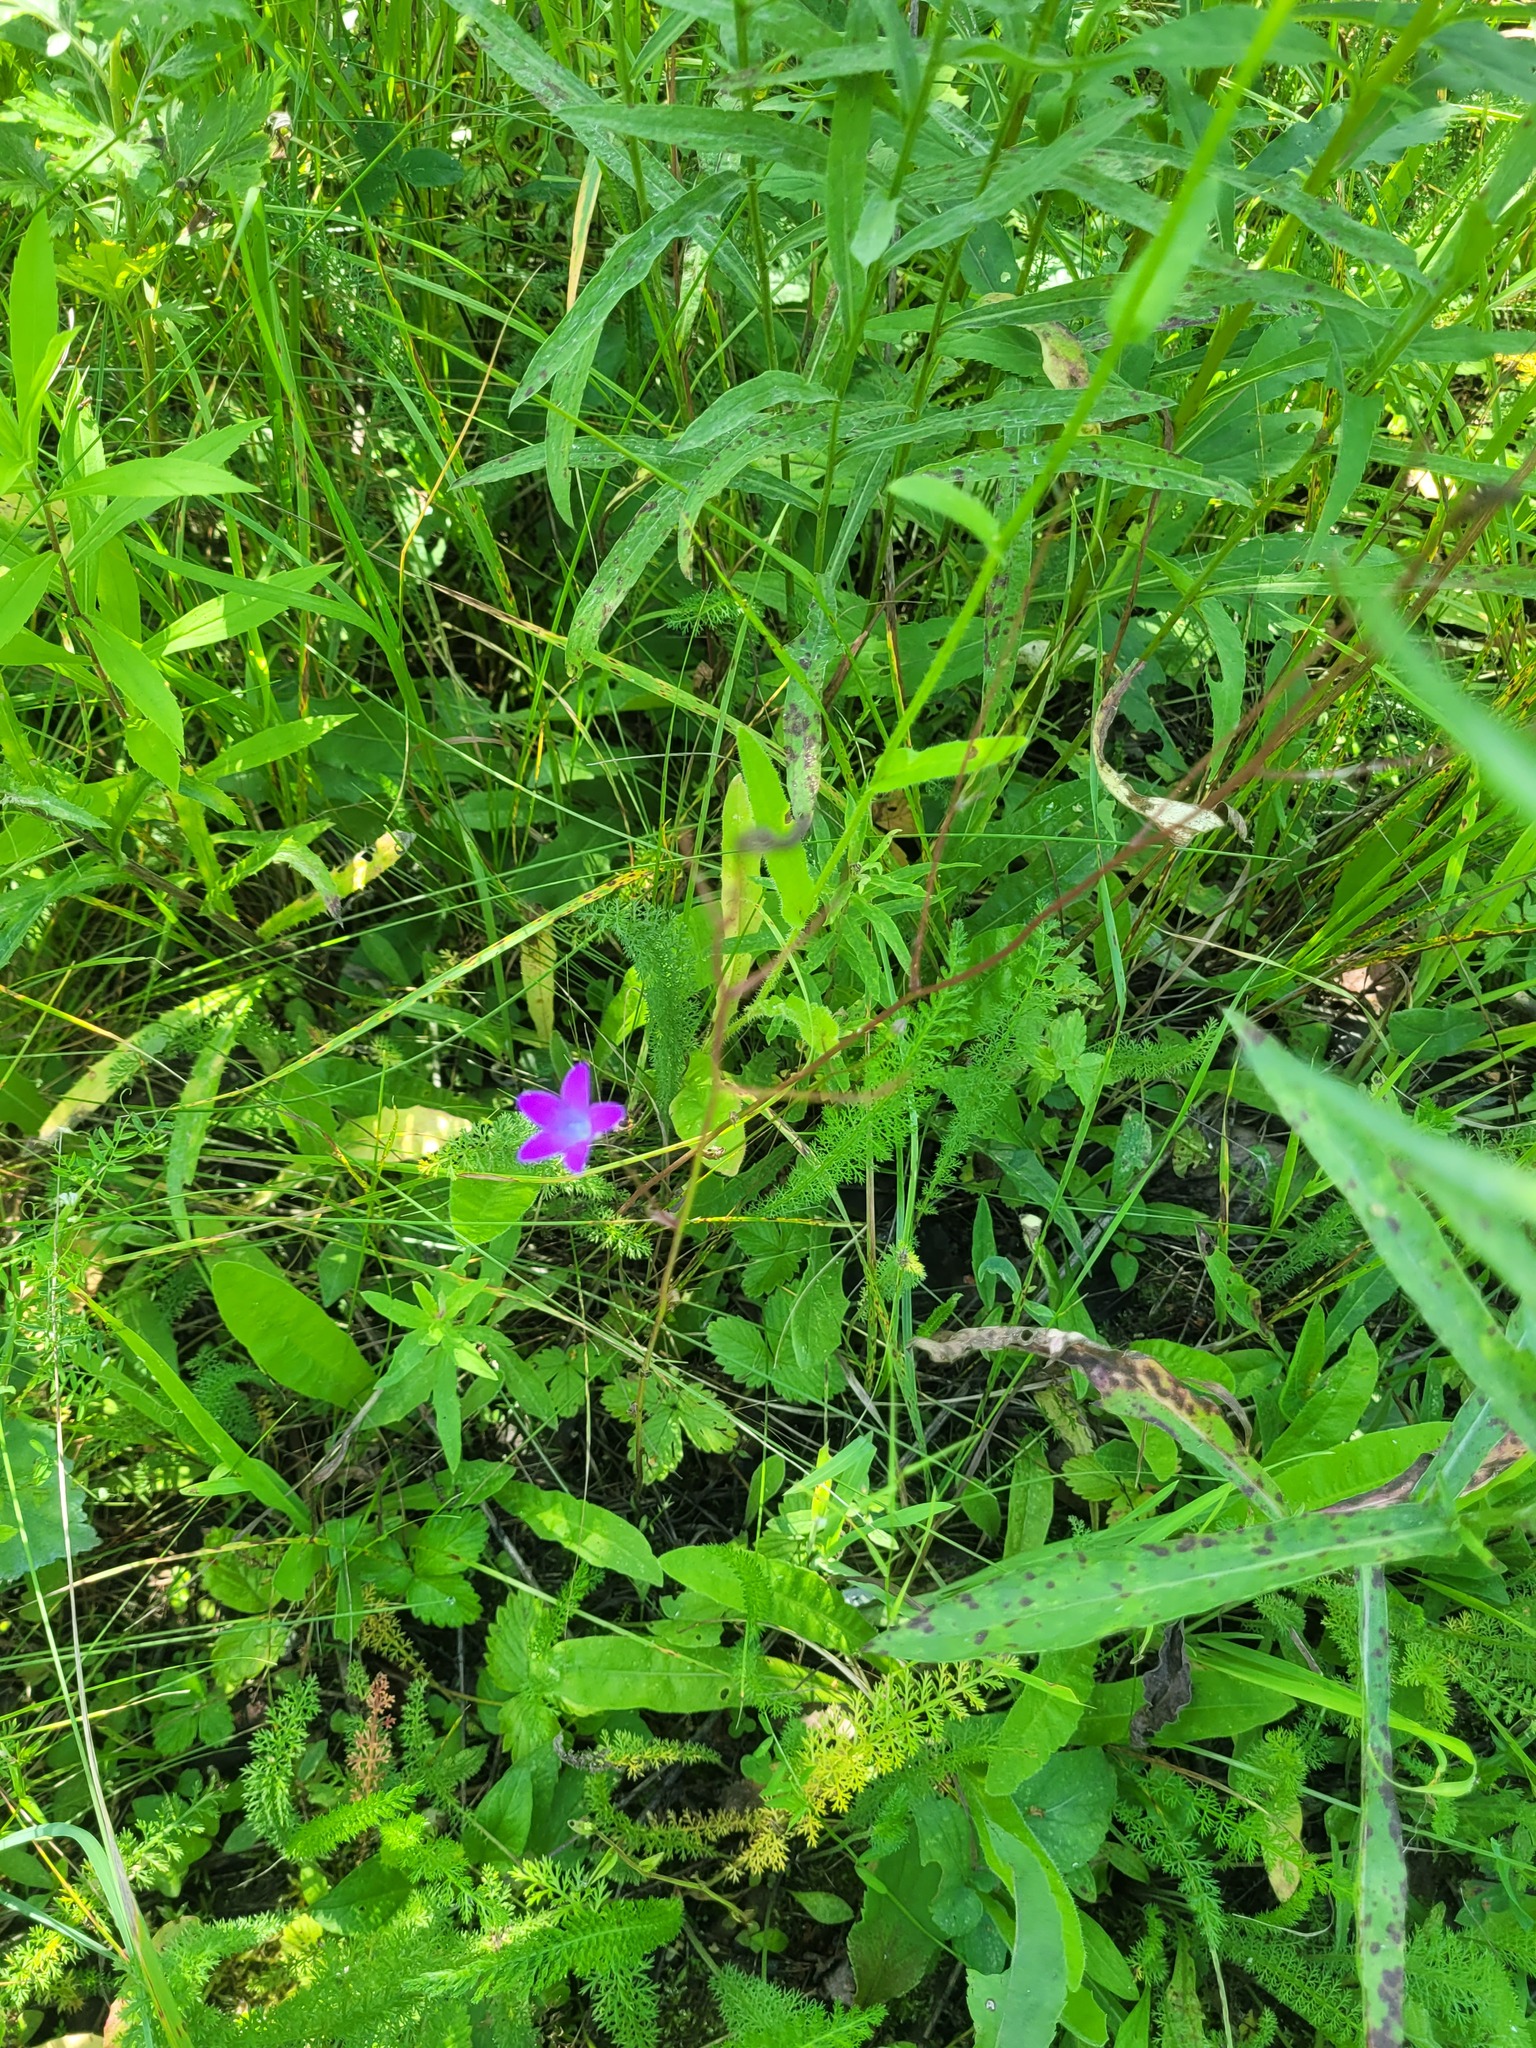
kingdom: Plantae
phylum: Tracheophyta
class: Magnoliopsida
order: Asterales
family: Campanulaceae
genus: Campanula
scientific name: Campanula patula
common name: Spreading bellflower
